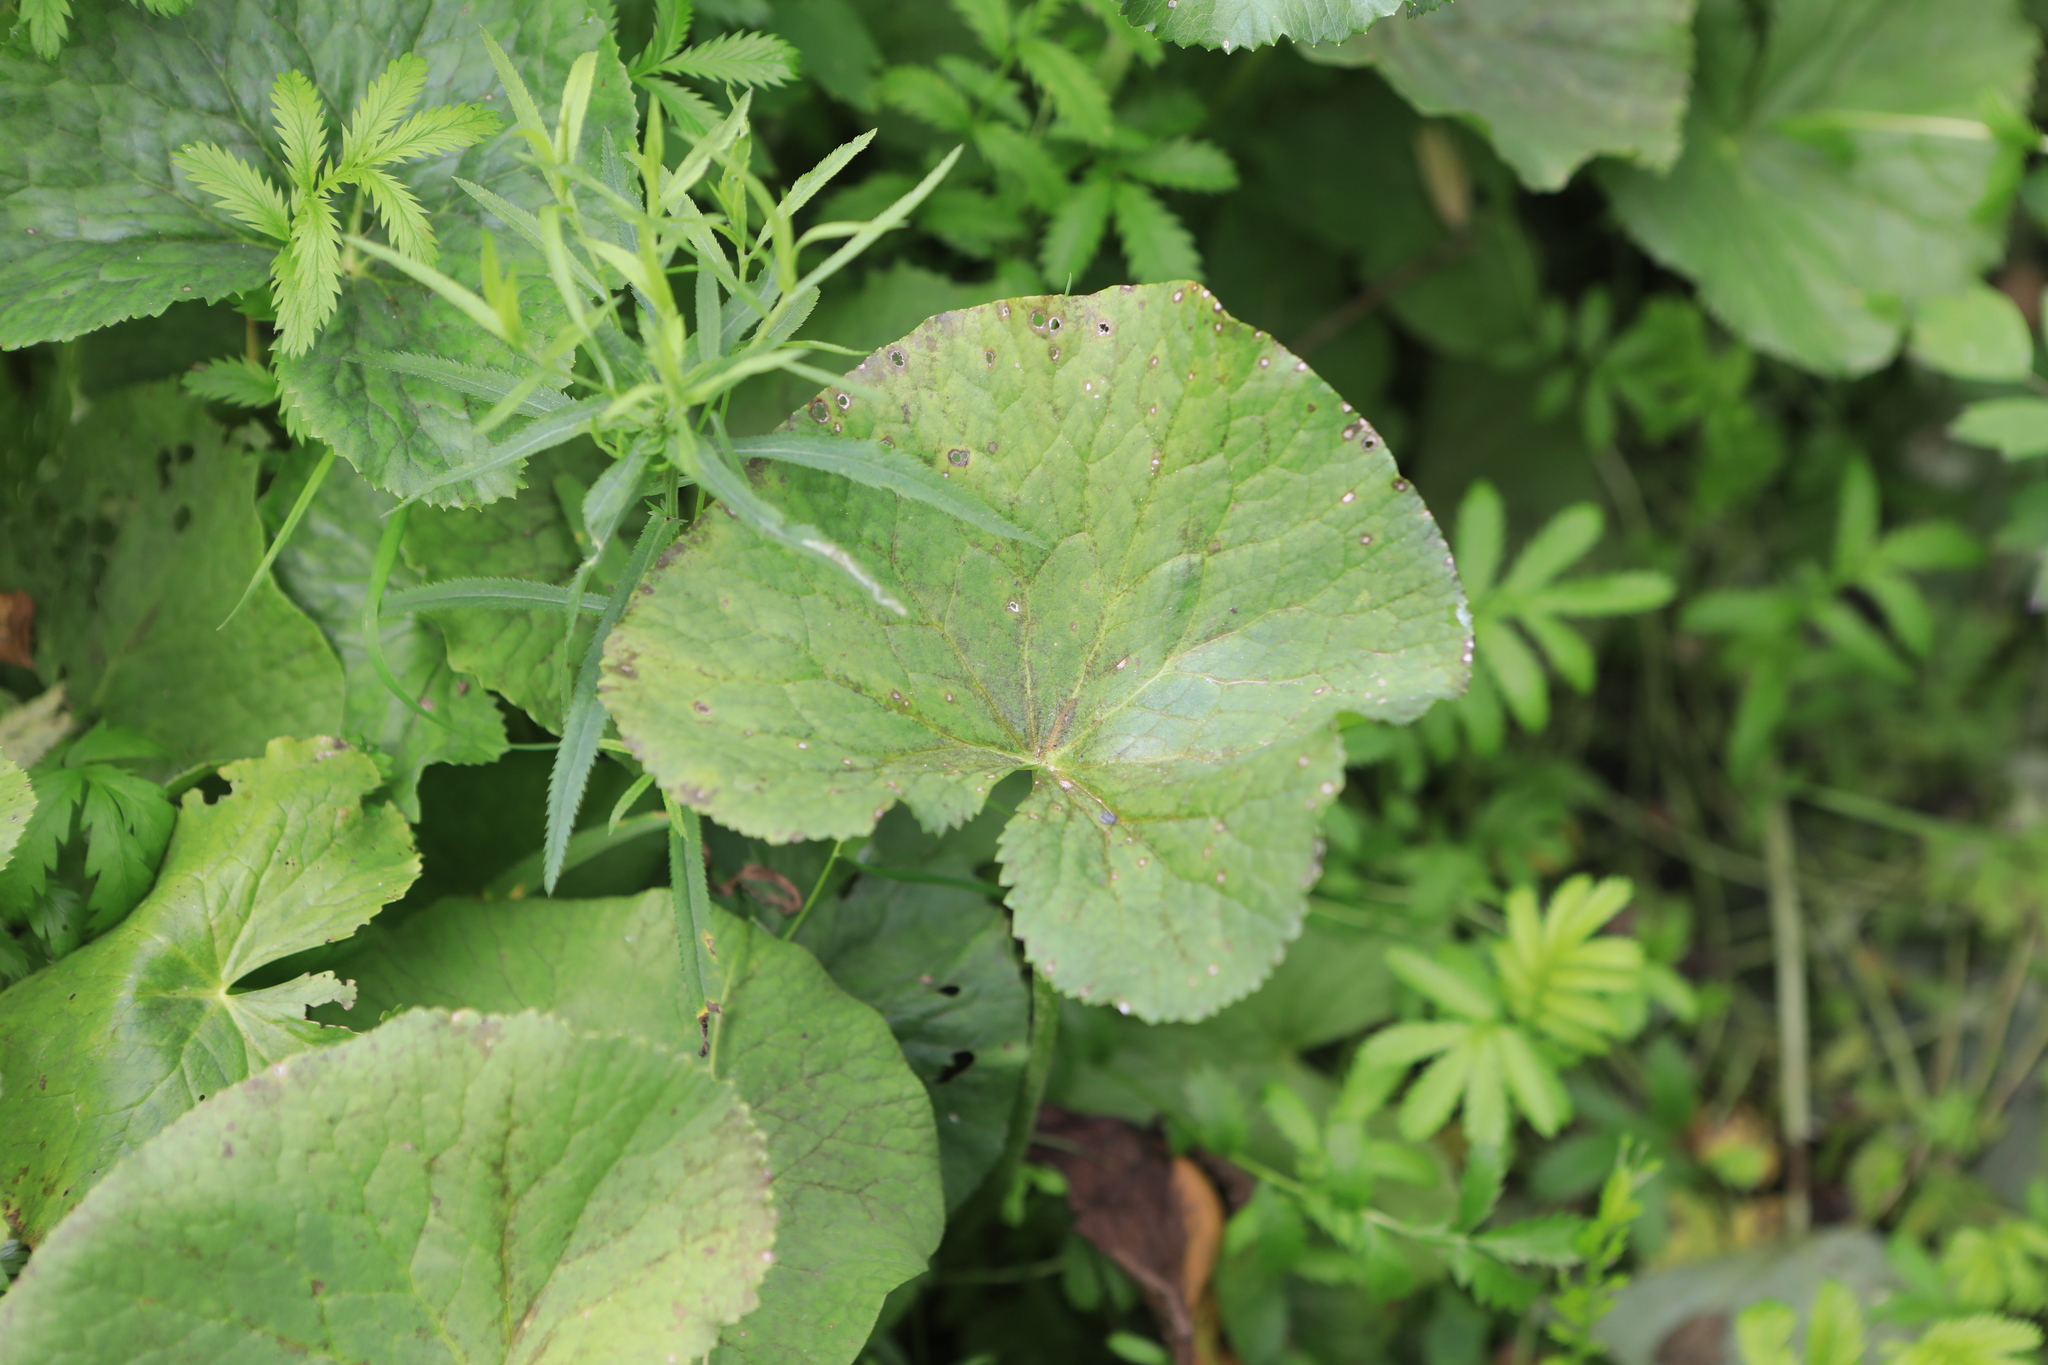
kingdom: Plantae
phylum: Tracheophyta
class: Magnoliopsida
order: Asterales
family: Asteraceae
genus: Ligularia
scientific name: Ligularia sibirica
